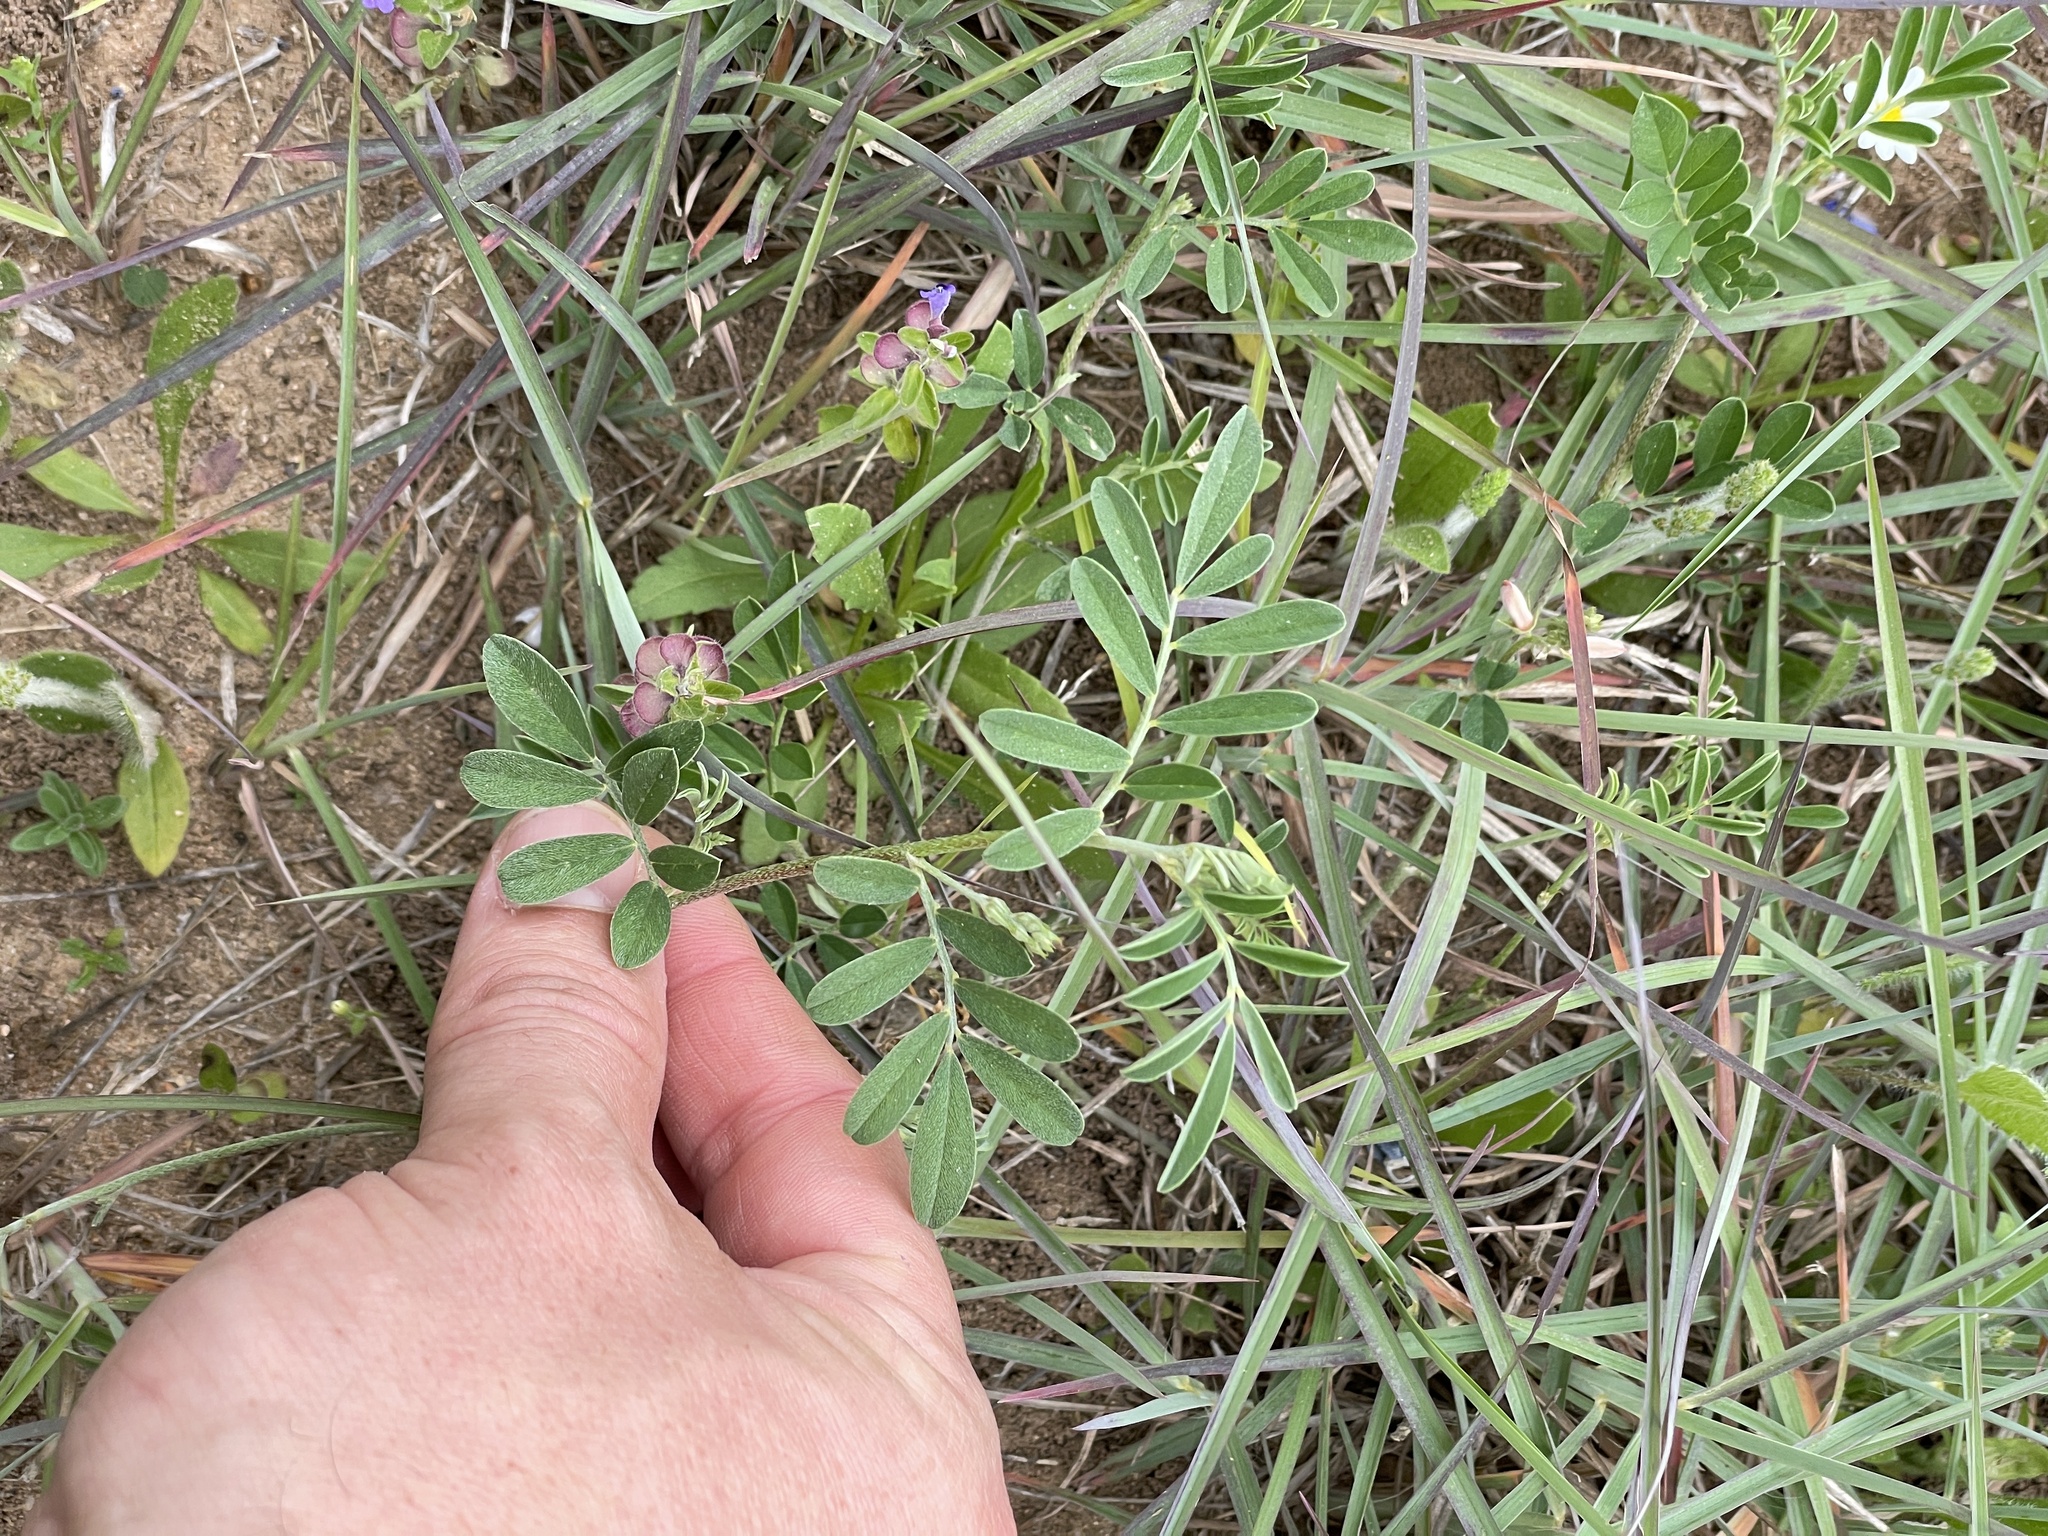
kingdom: Plantae
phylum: Tracheophyta
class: Magnoliopsida
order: Fabales
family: Fabaceae
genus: Indigofera
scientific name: Indigofera miniata
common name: Coast indigo
